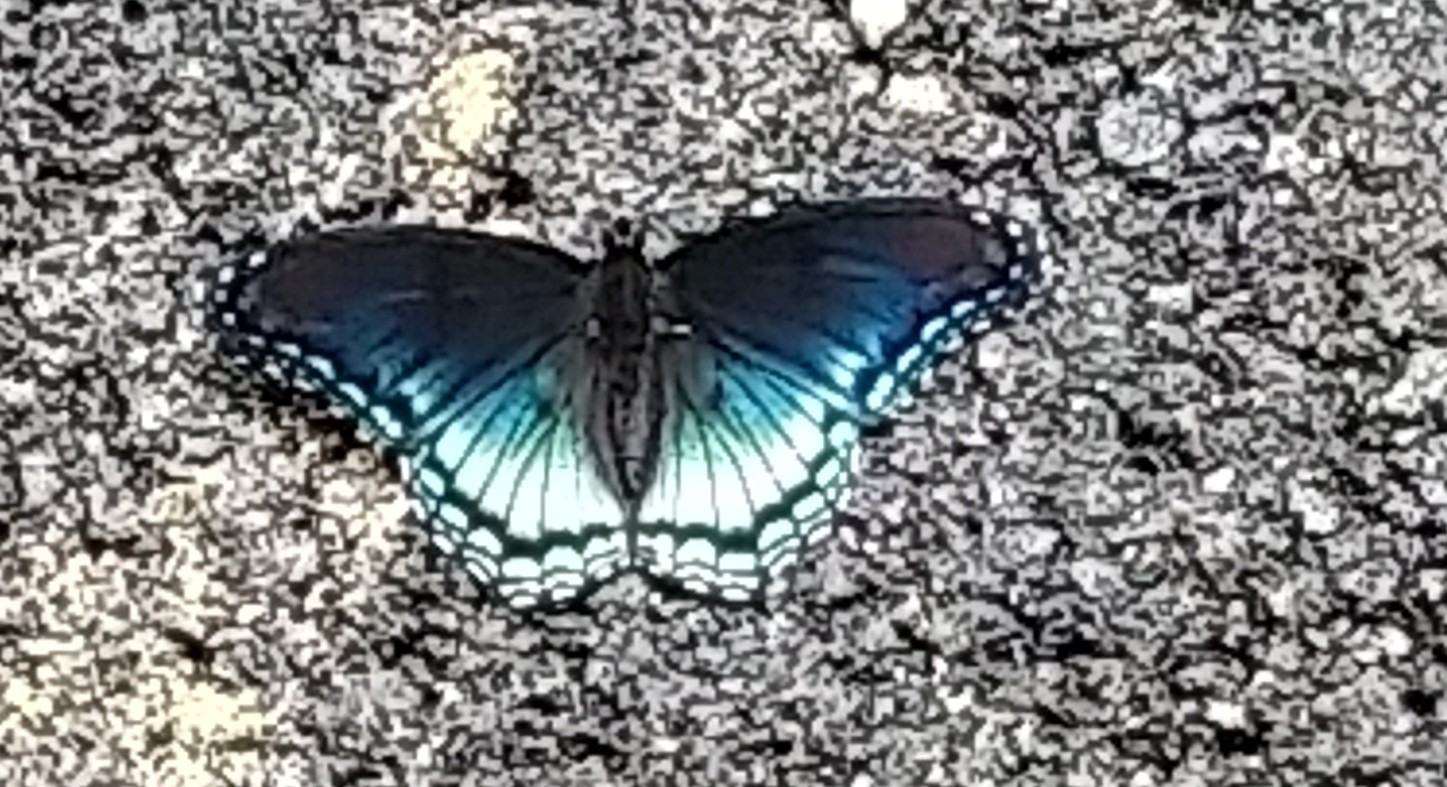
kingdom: Animalia
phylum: Arthropoda
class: Insecta
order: Lepidoptera
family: Nymphalidae
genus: Limenitis
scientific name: Limenitis astyanax
